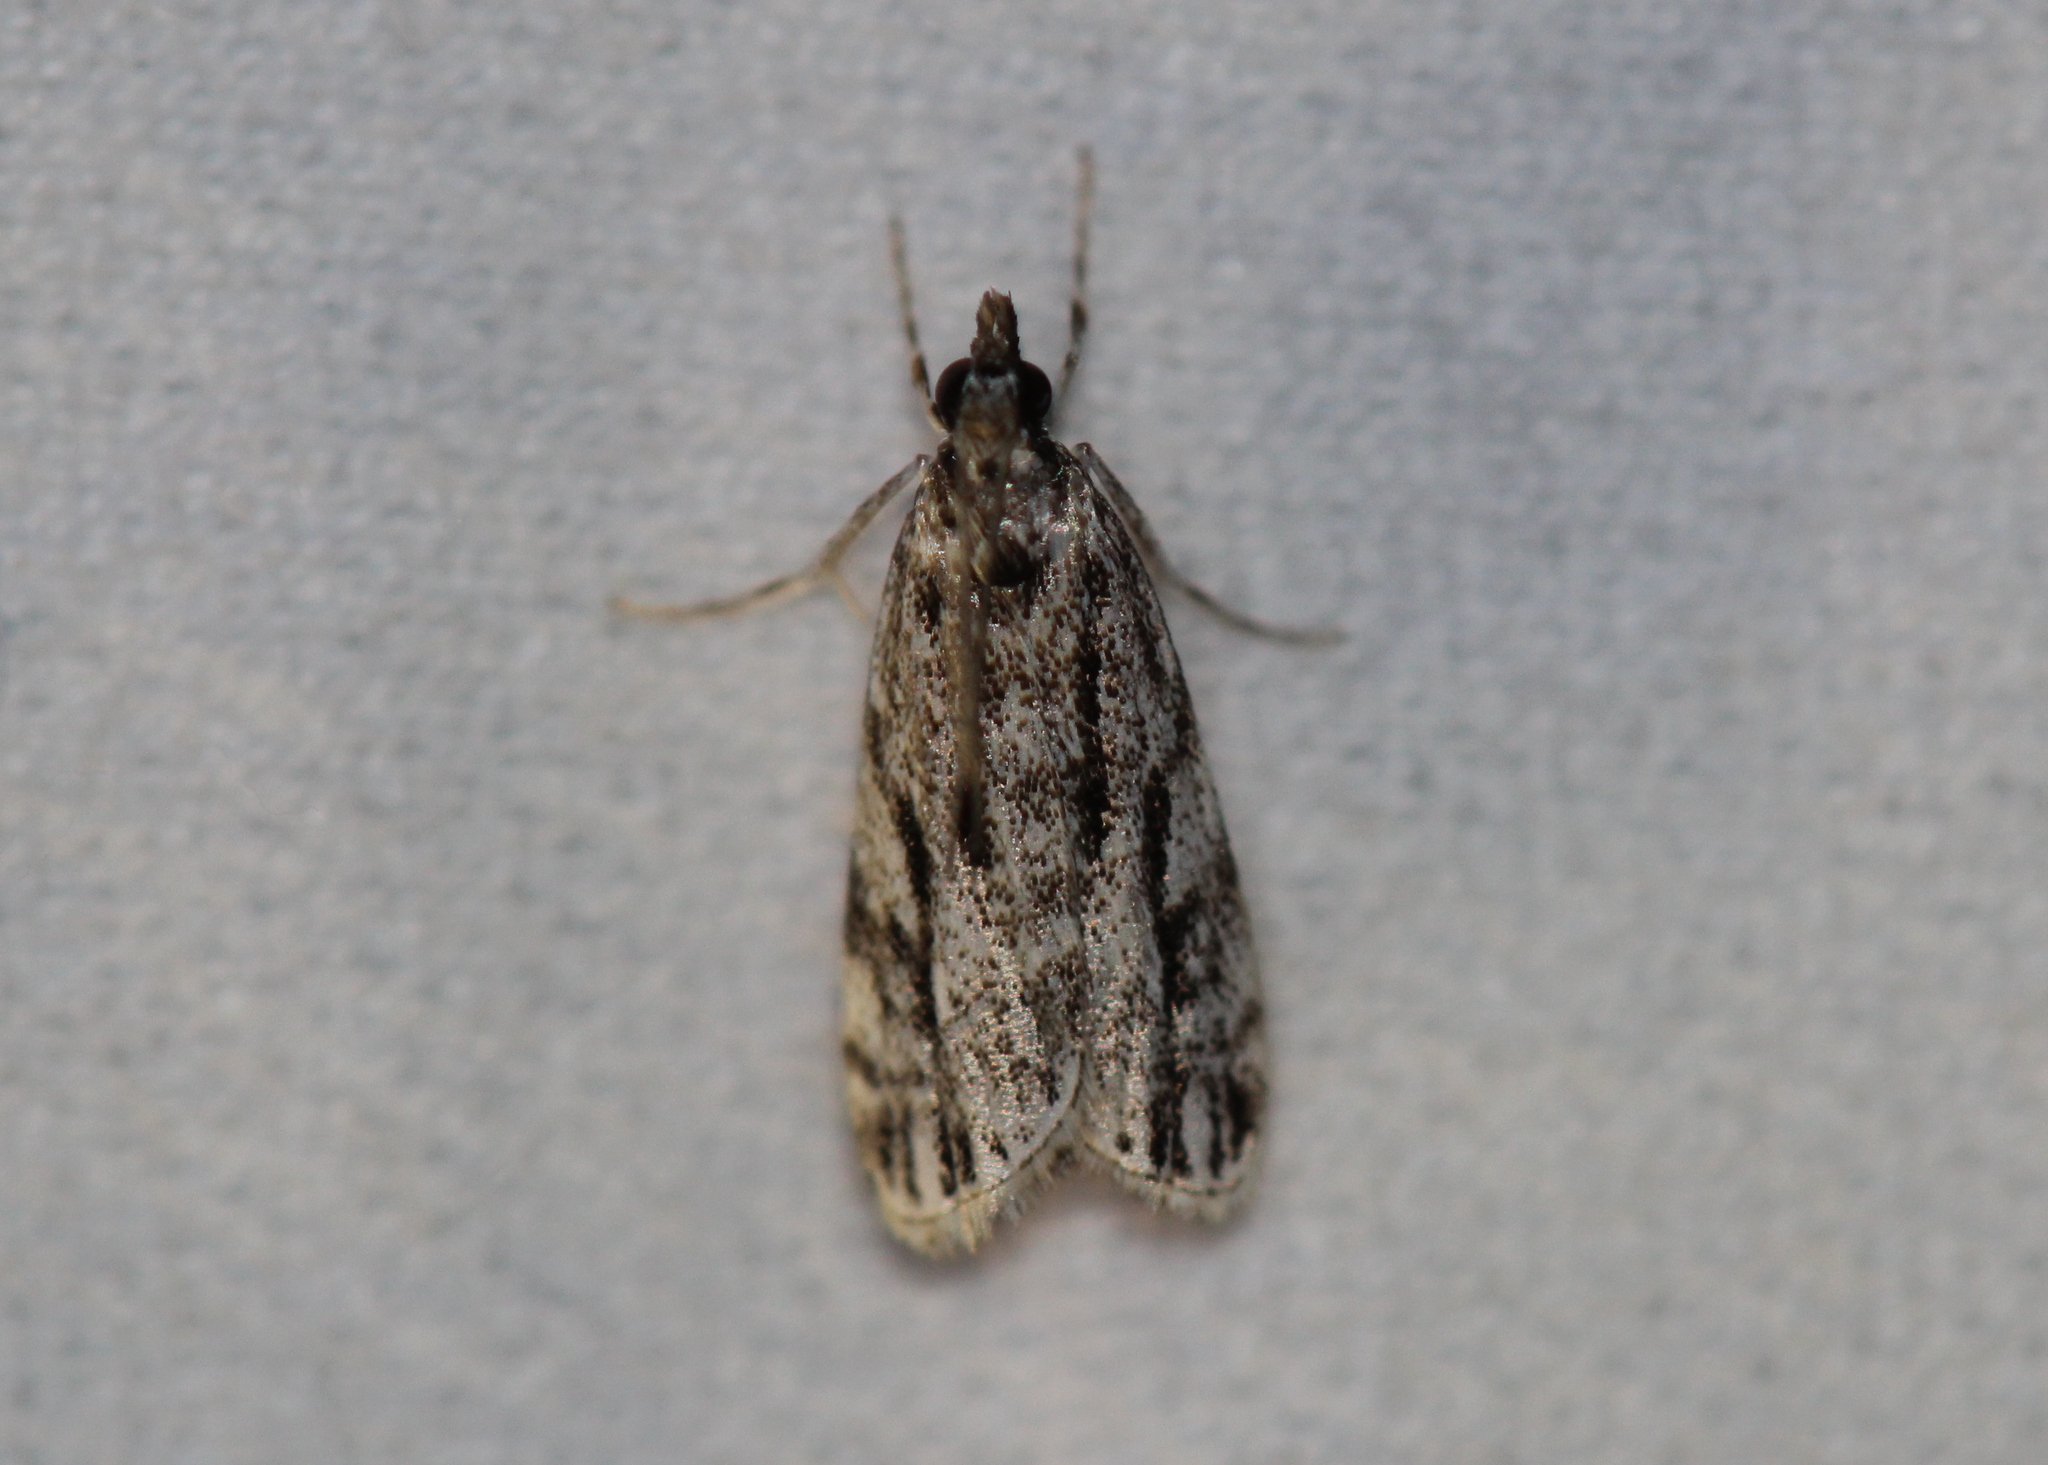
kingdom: Animalia
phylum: Arthropoda
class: Insecta
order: Lepidoptera
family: Crambidae
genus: Eudonia
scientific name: Eudonia strigalis
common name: Striped eudonia moth
